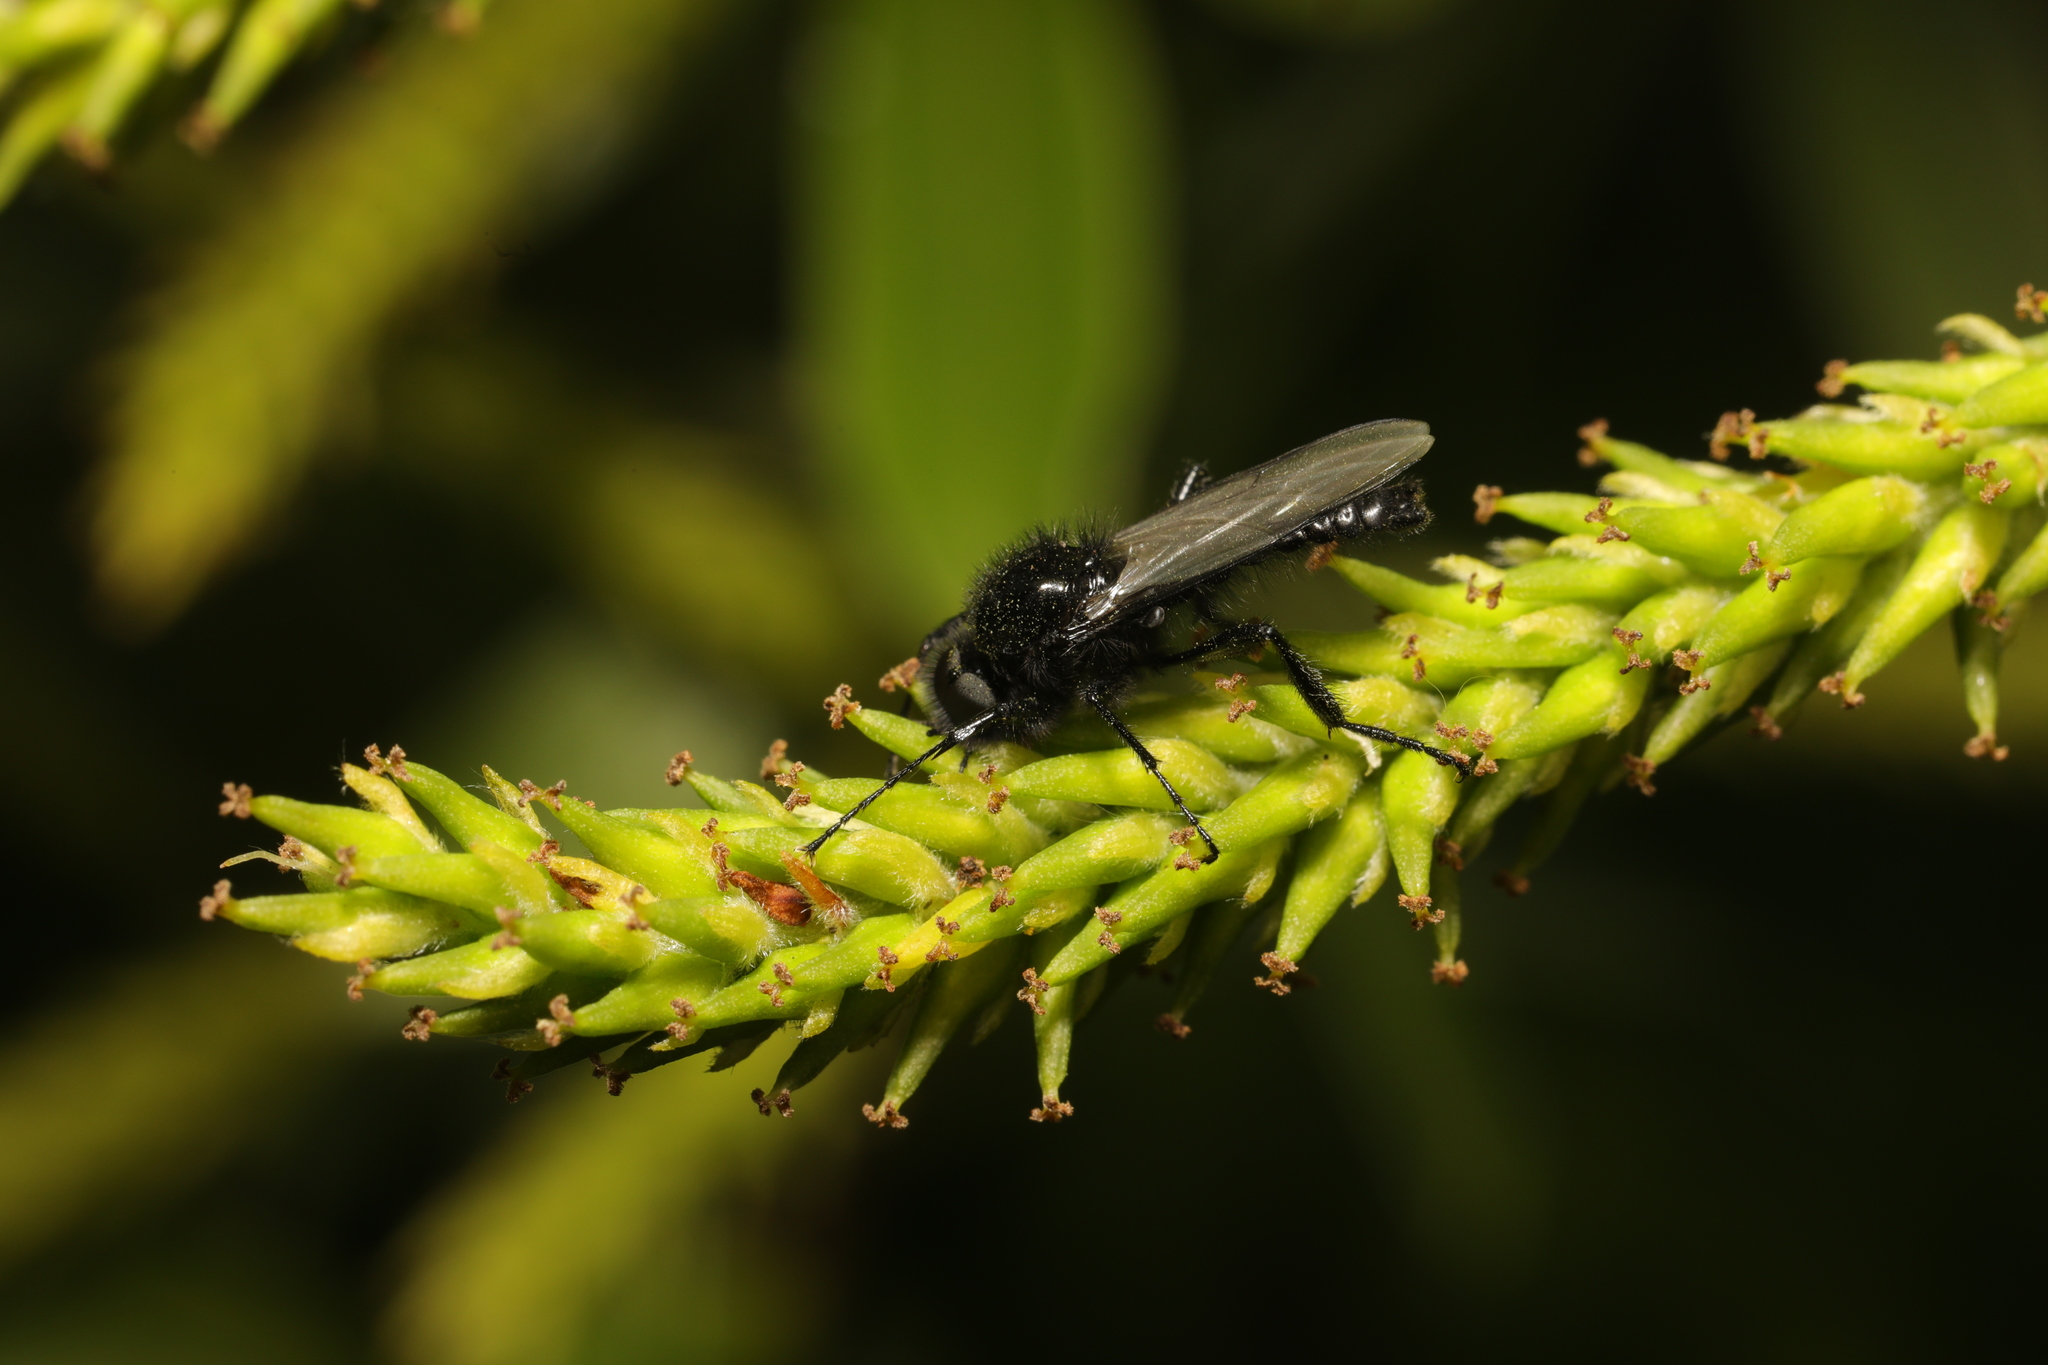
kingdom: Animalia
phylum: Arthropoda
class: Insecta
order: Diptera
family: Bibionidae
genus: Bibio
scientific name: Bibio marci
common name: St marks fly
